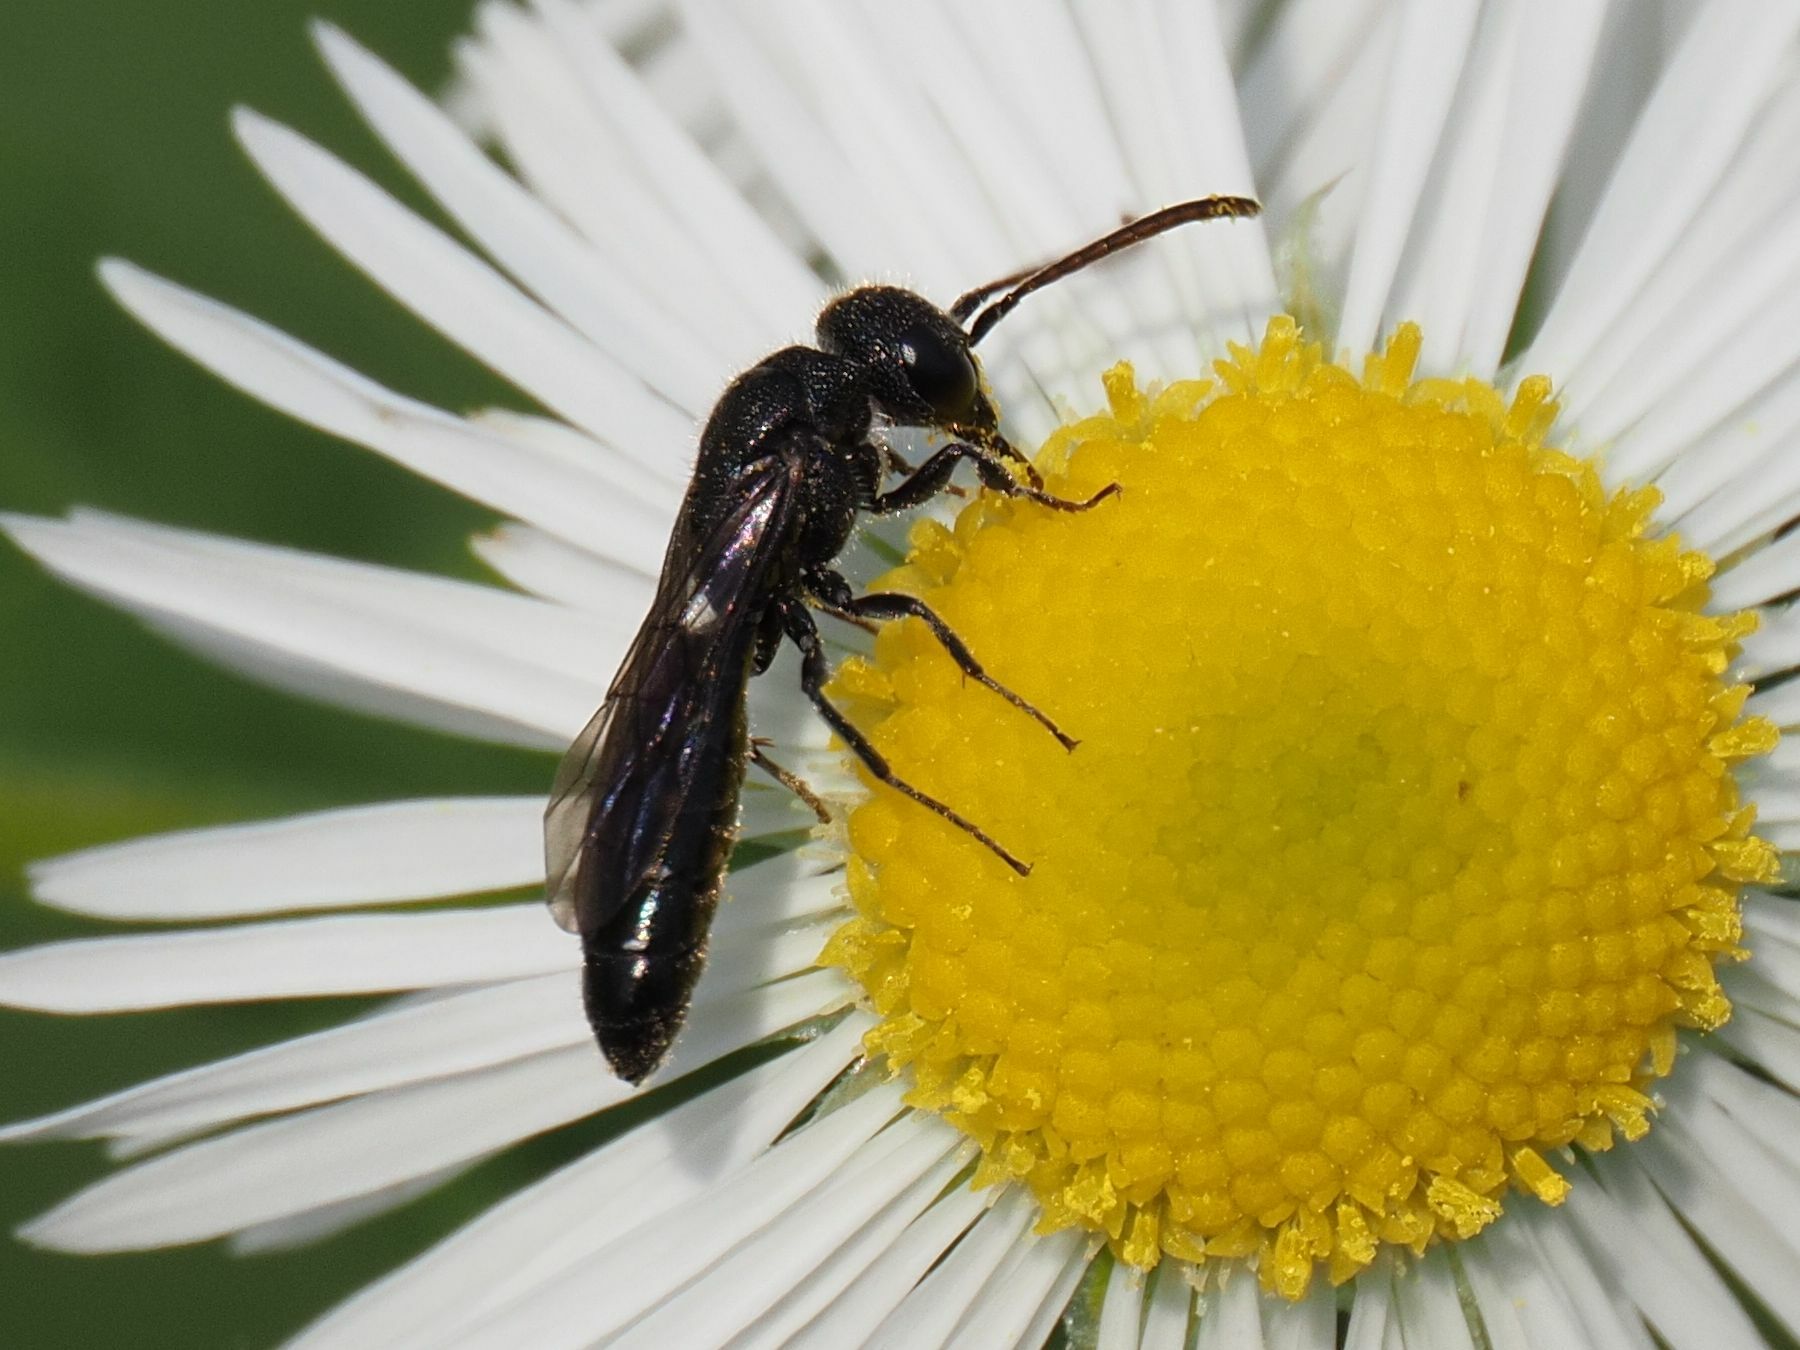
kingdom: Animalia
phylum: Arthropoda
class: Insecta
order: Hymenoptera
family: Sapygidae
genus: Sapygina
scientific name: Sapygina decemguttata
